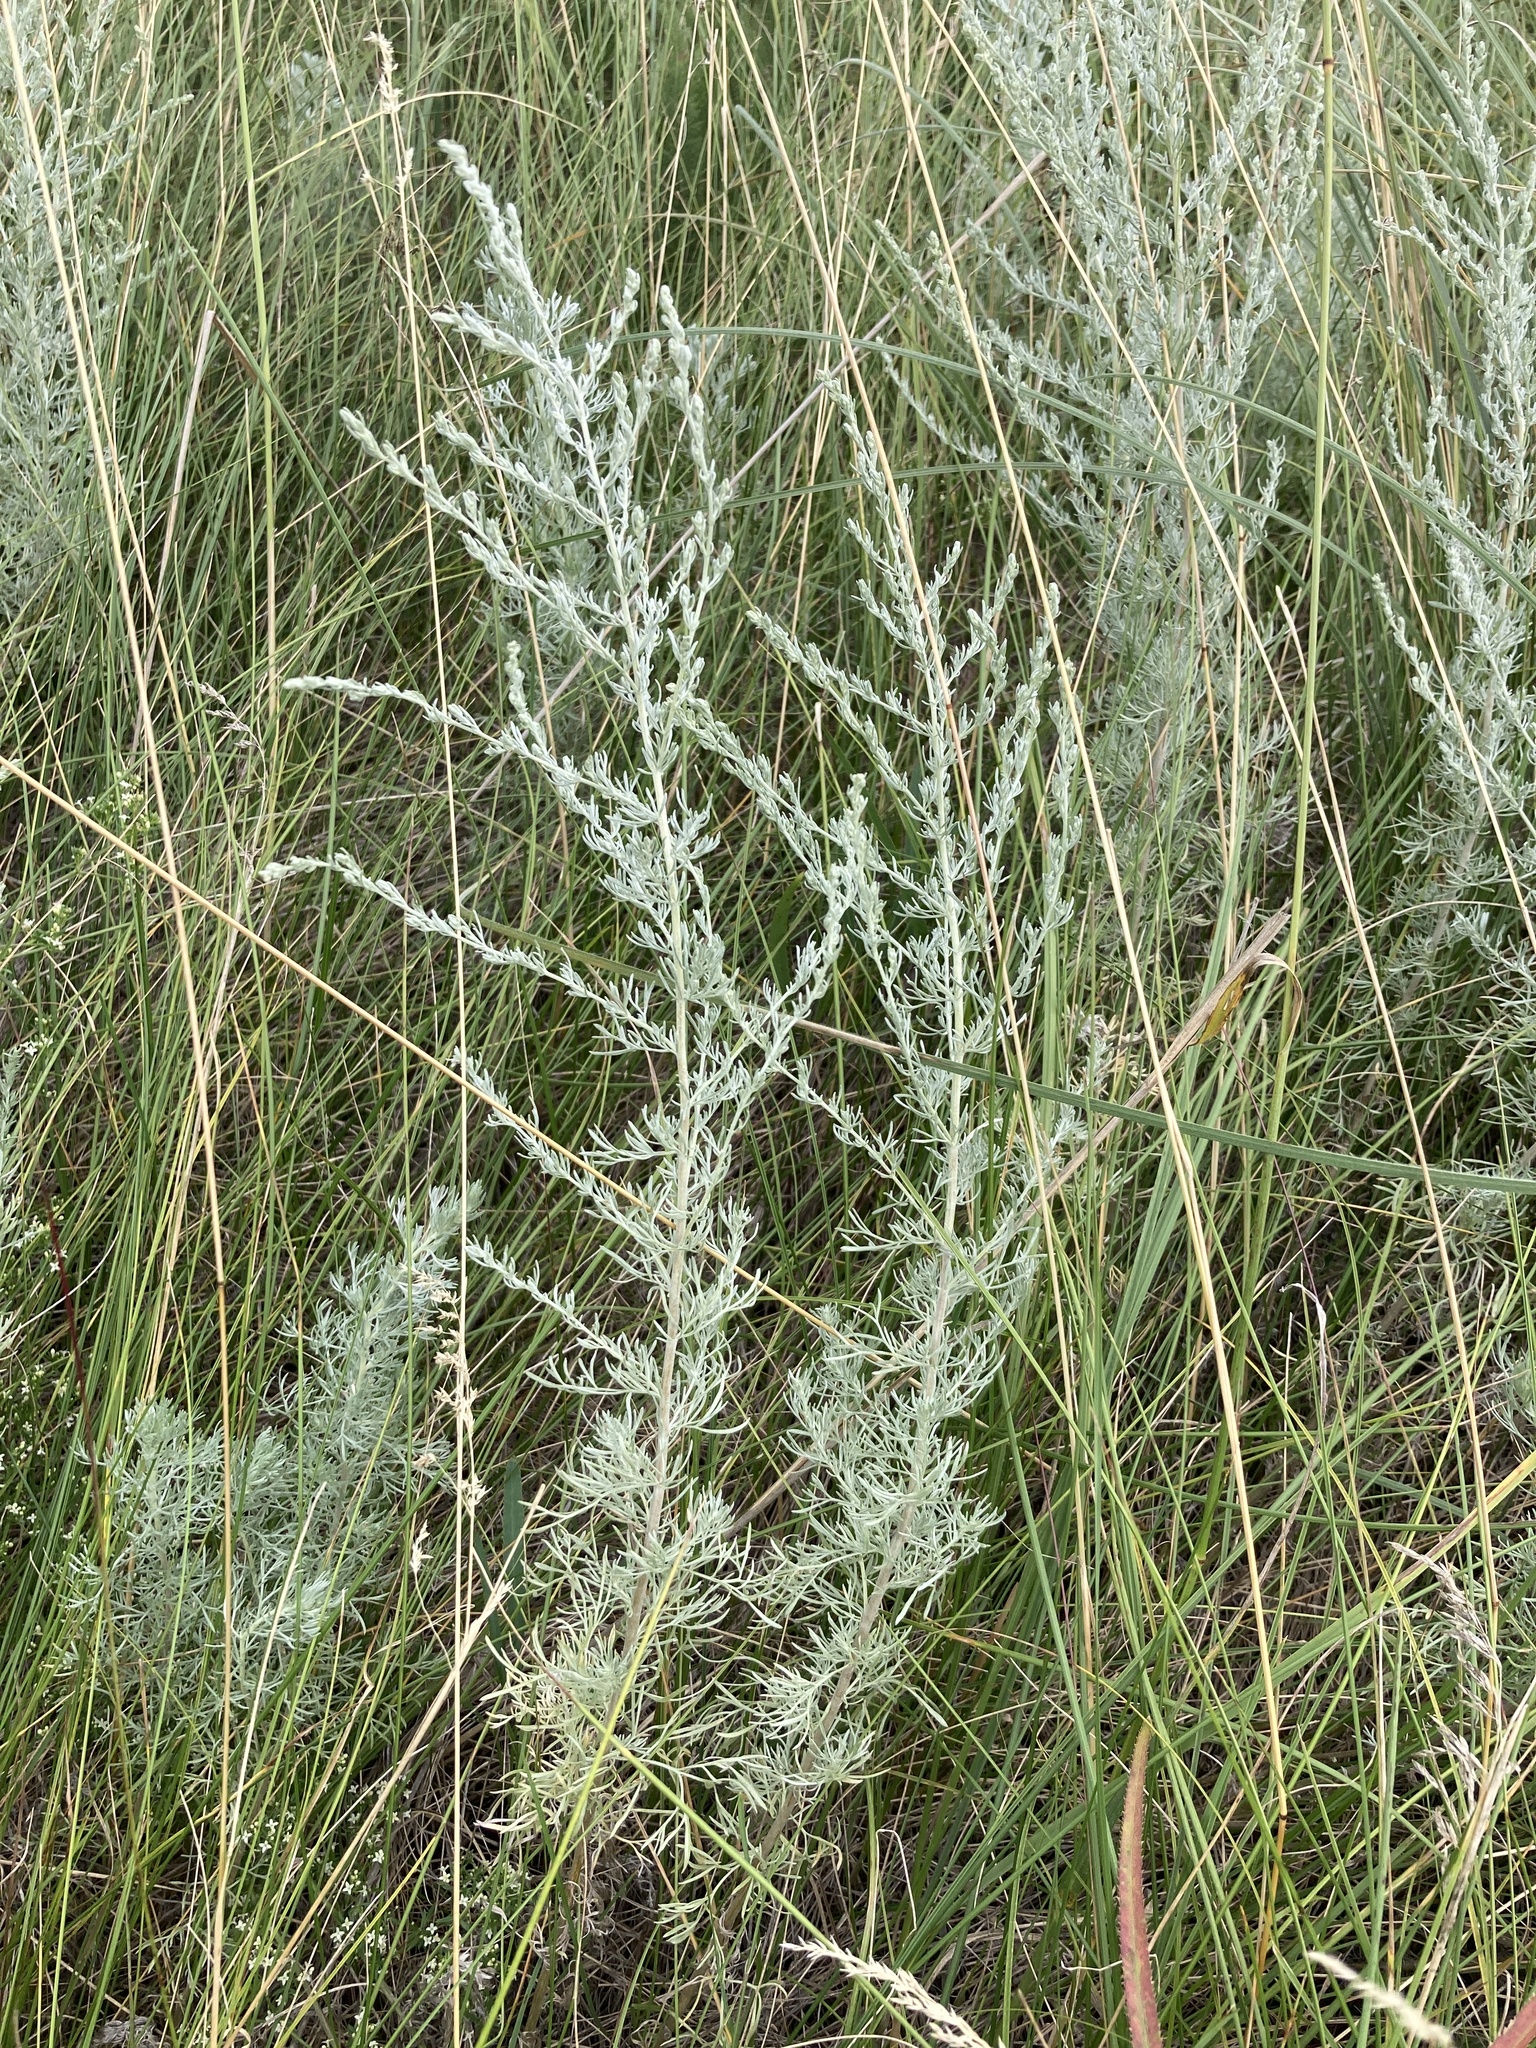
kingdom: Plantae
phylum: Tracheophyta
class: Magnoliopsida
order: Asterales
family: Asteraceae
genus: Artemisia
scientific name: Artemisia austriaca
